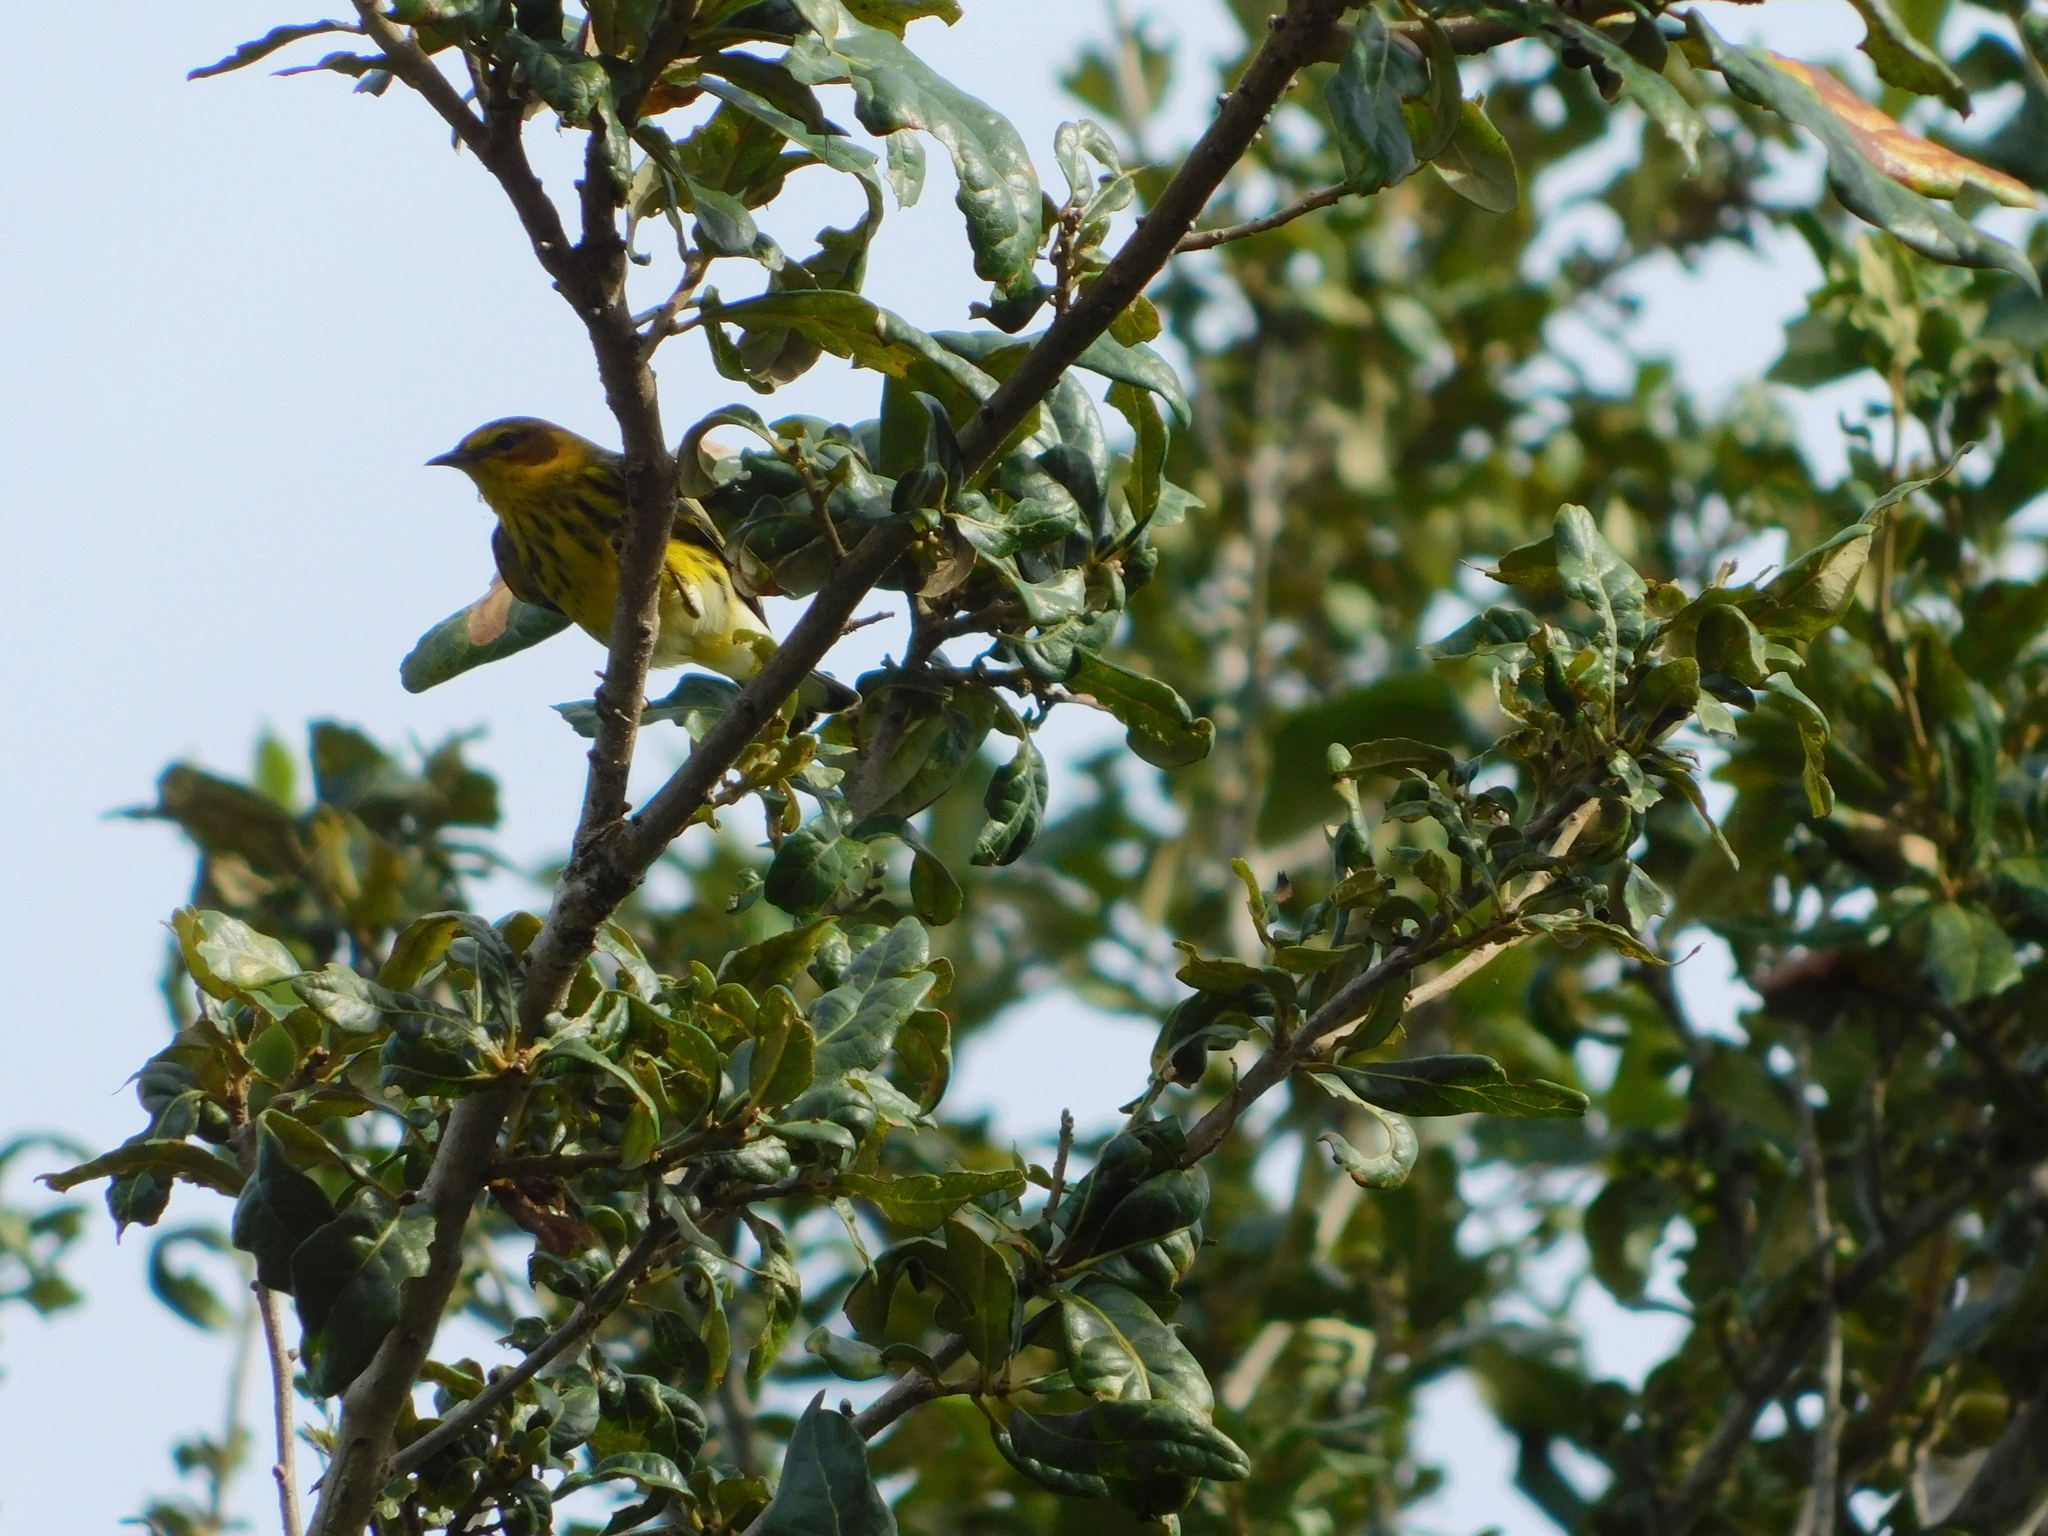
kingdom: Animalia
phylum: Chordata
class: Aves
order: Passeriformes
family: Parulidae
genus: Setophaga
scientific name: Setophaga tigrina
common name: Cape may warbler
